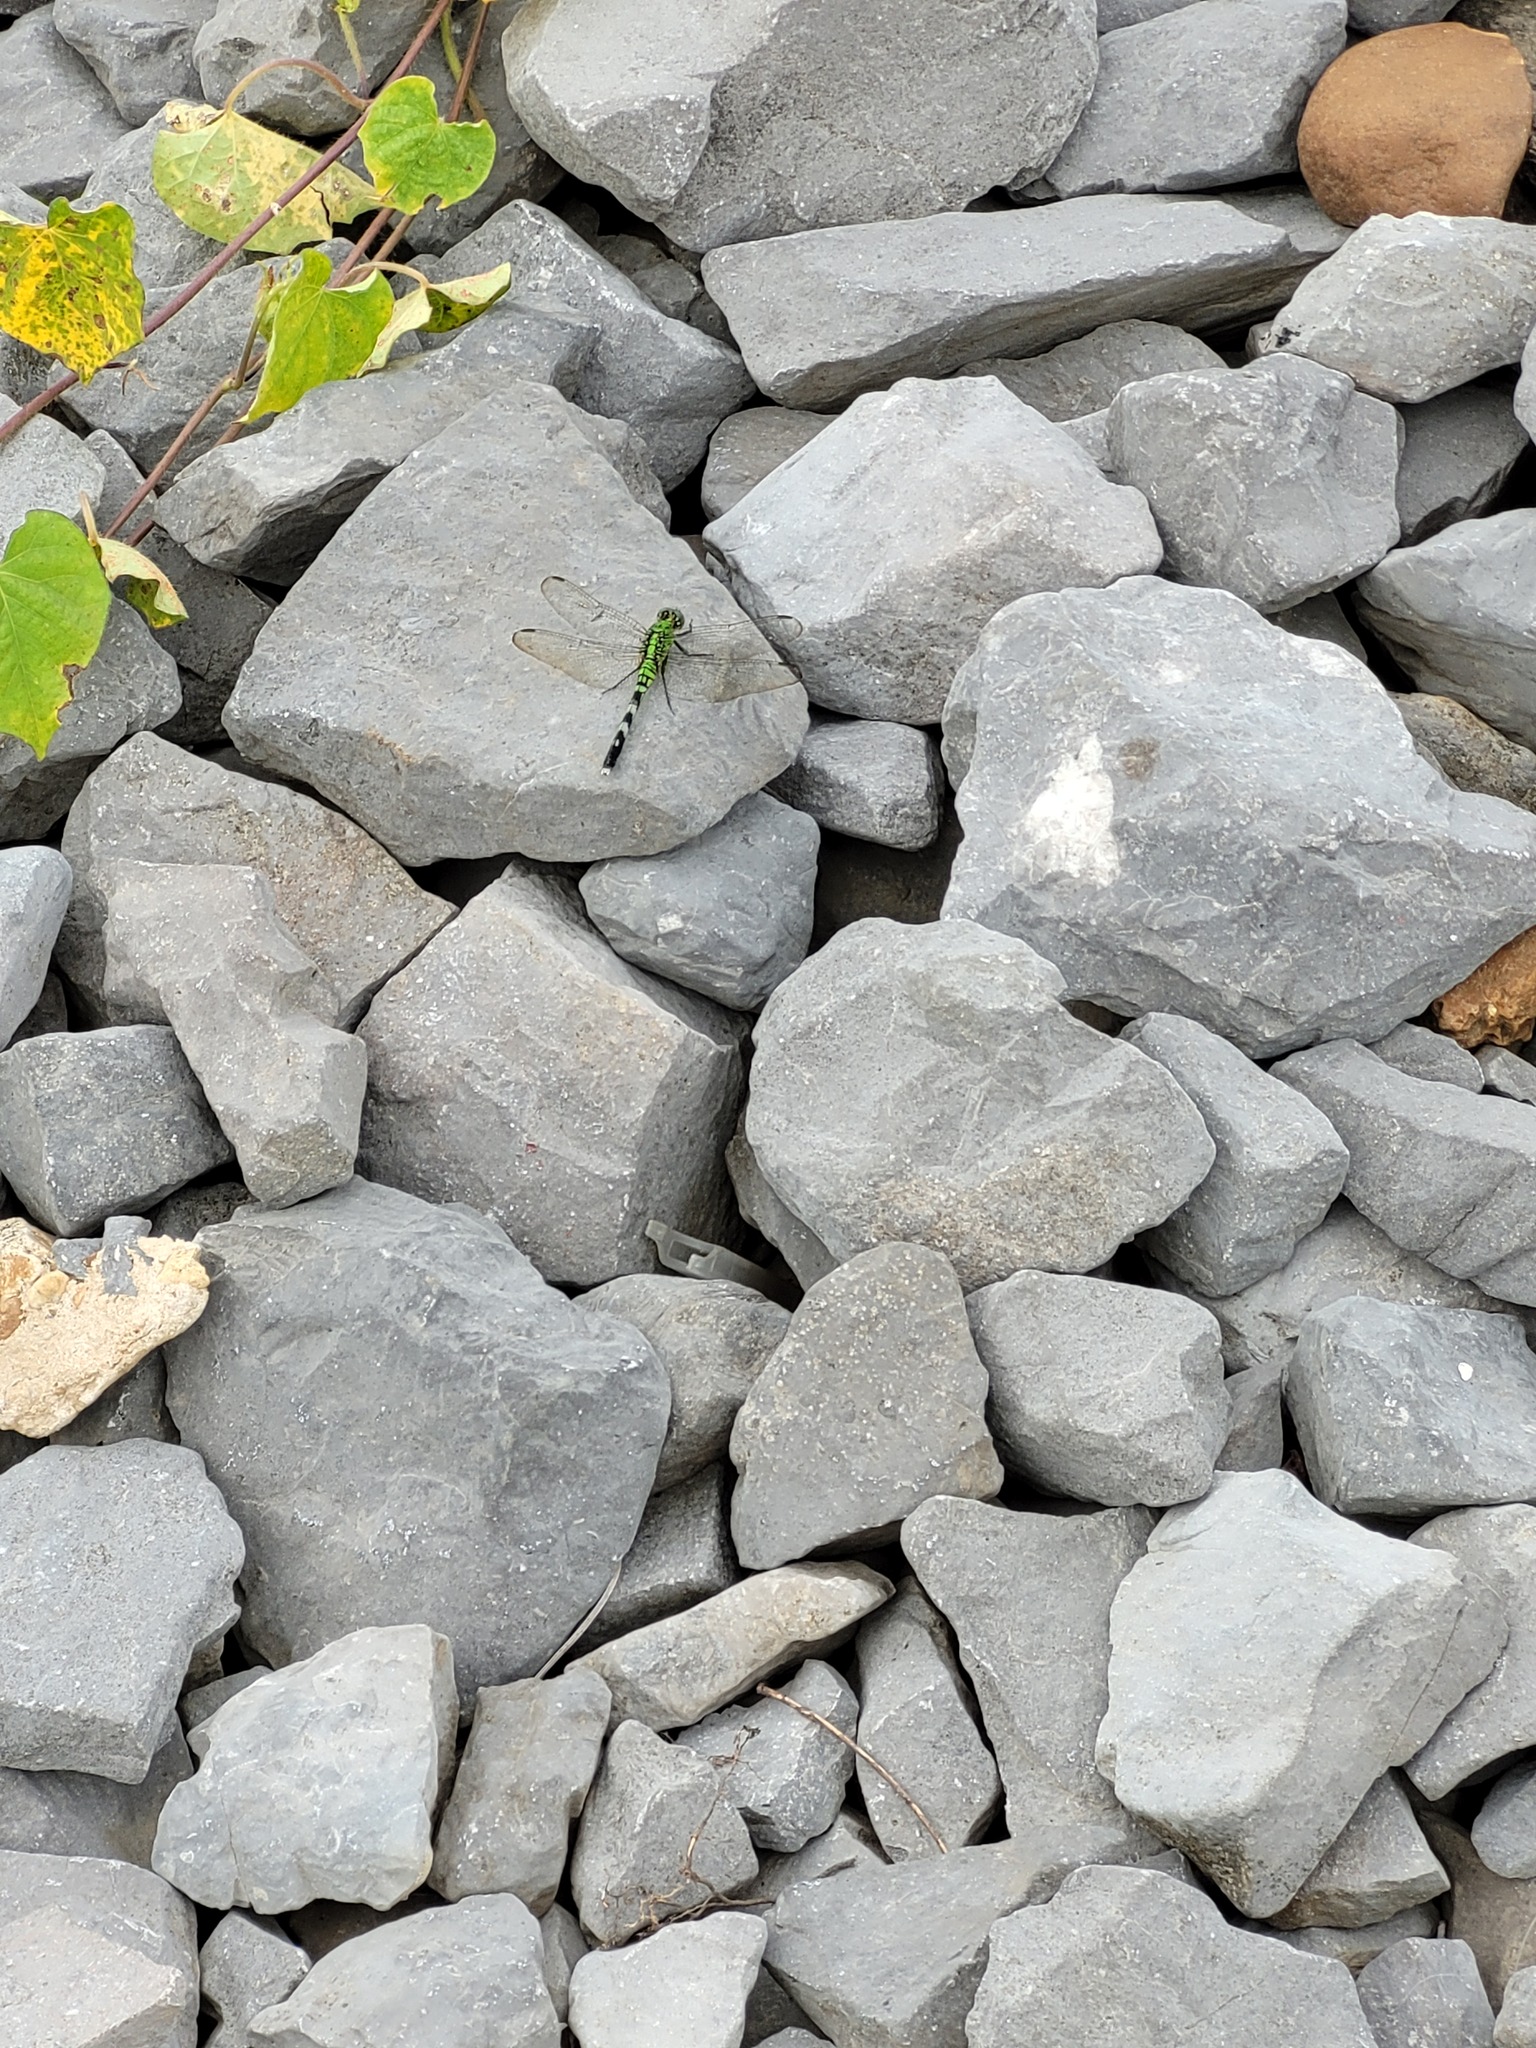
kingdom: Animalia
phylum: Arthropoda
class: Insecta
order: Odonata
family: Libellulidae
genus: Erythemis
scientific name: Erythemis simplicicollis
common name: Eastern pondhawk
